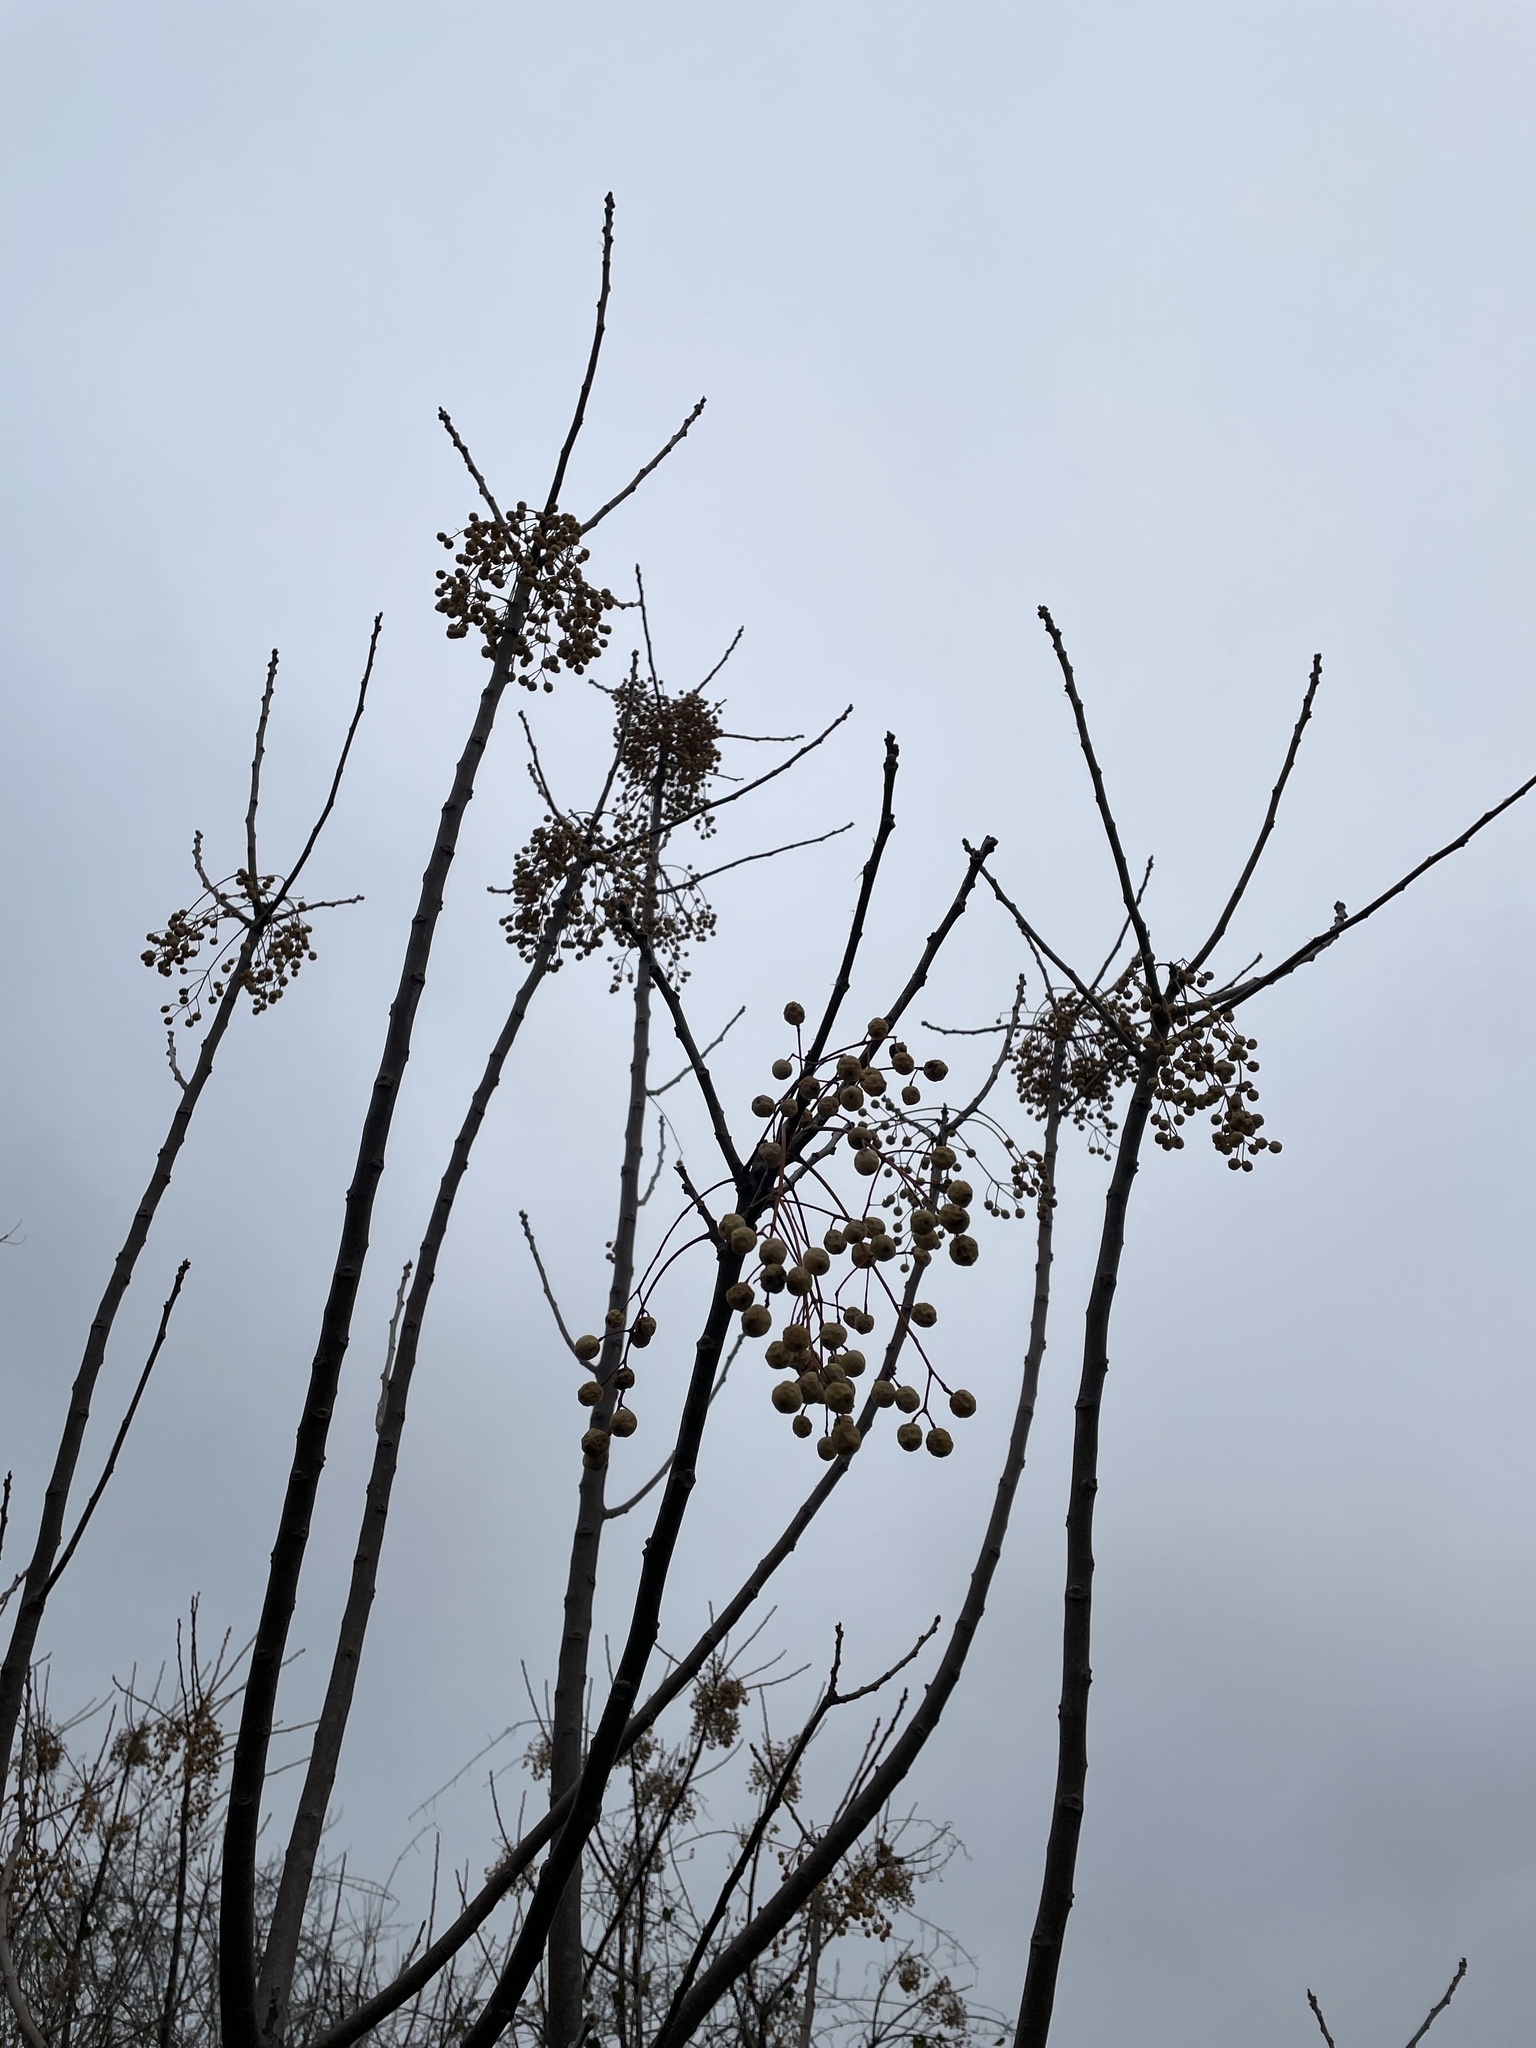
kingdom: Plantae
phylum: Tracheophyta
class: Magnoliopsida
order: Sapindales
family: Meliaceae
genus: Melia
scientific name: Melia azedarach
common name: Chinaberrytree
